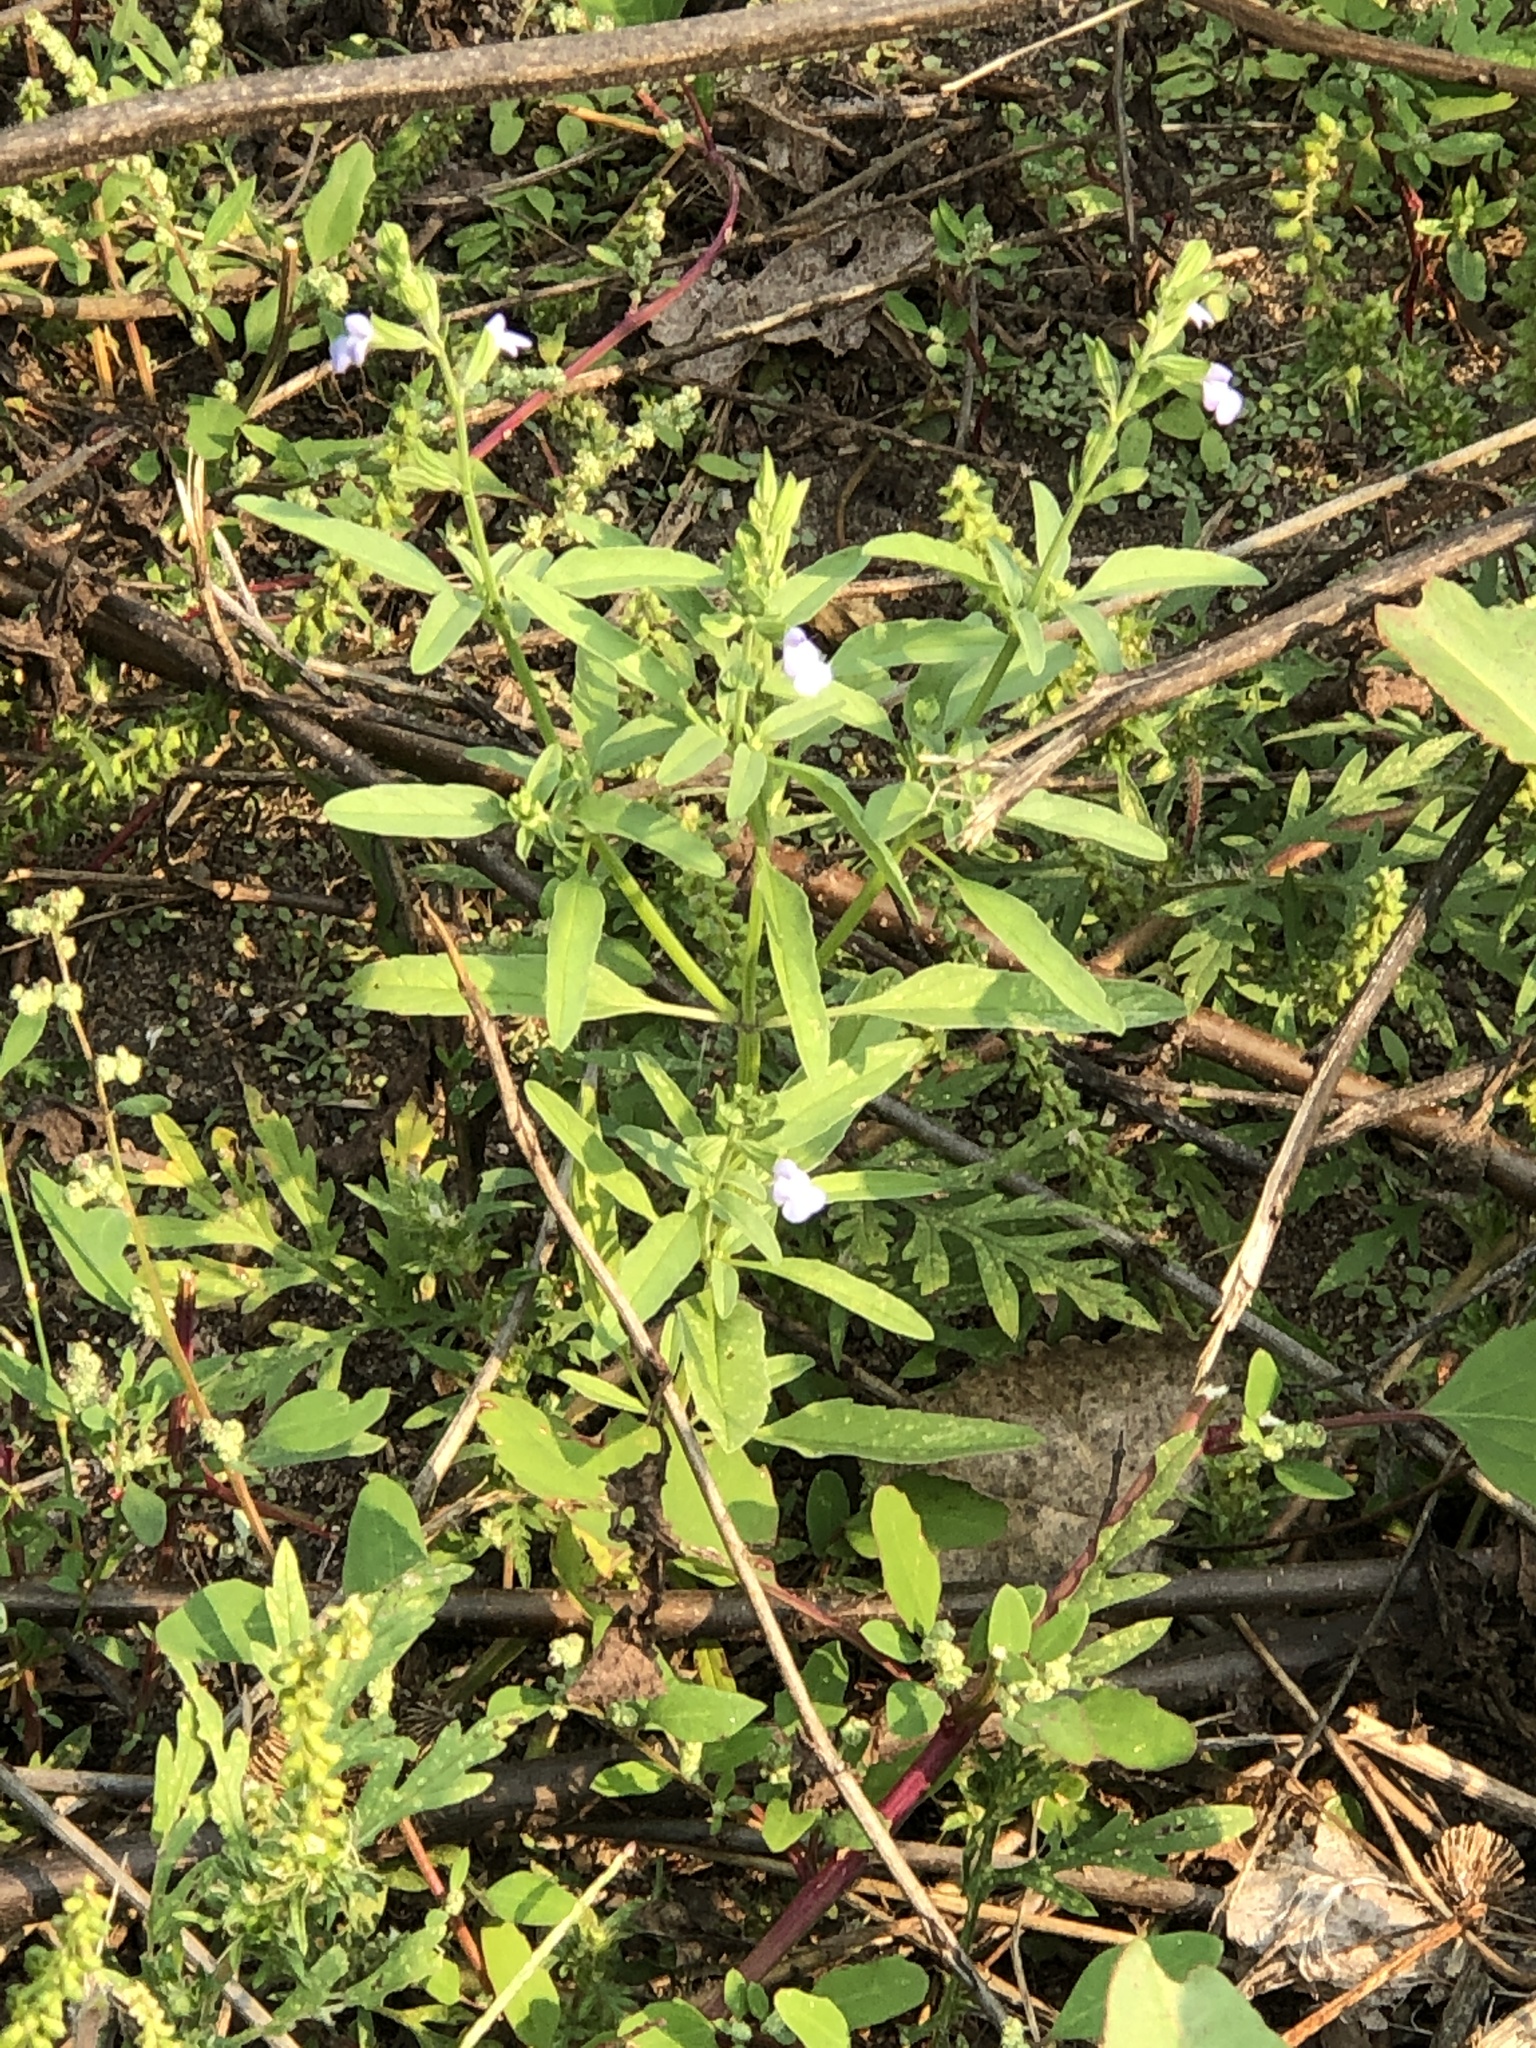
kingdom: Plantae
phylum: Tracheophyta
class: Magnoliopsida
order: Lamiales
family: Lamiaceae
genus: Salvia
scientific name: Salvia reflexa
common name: Mintweed
